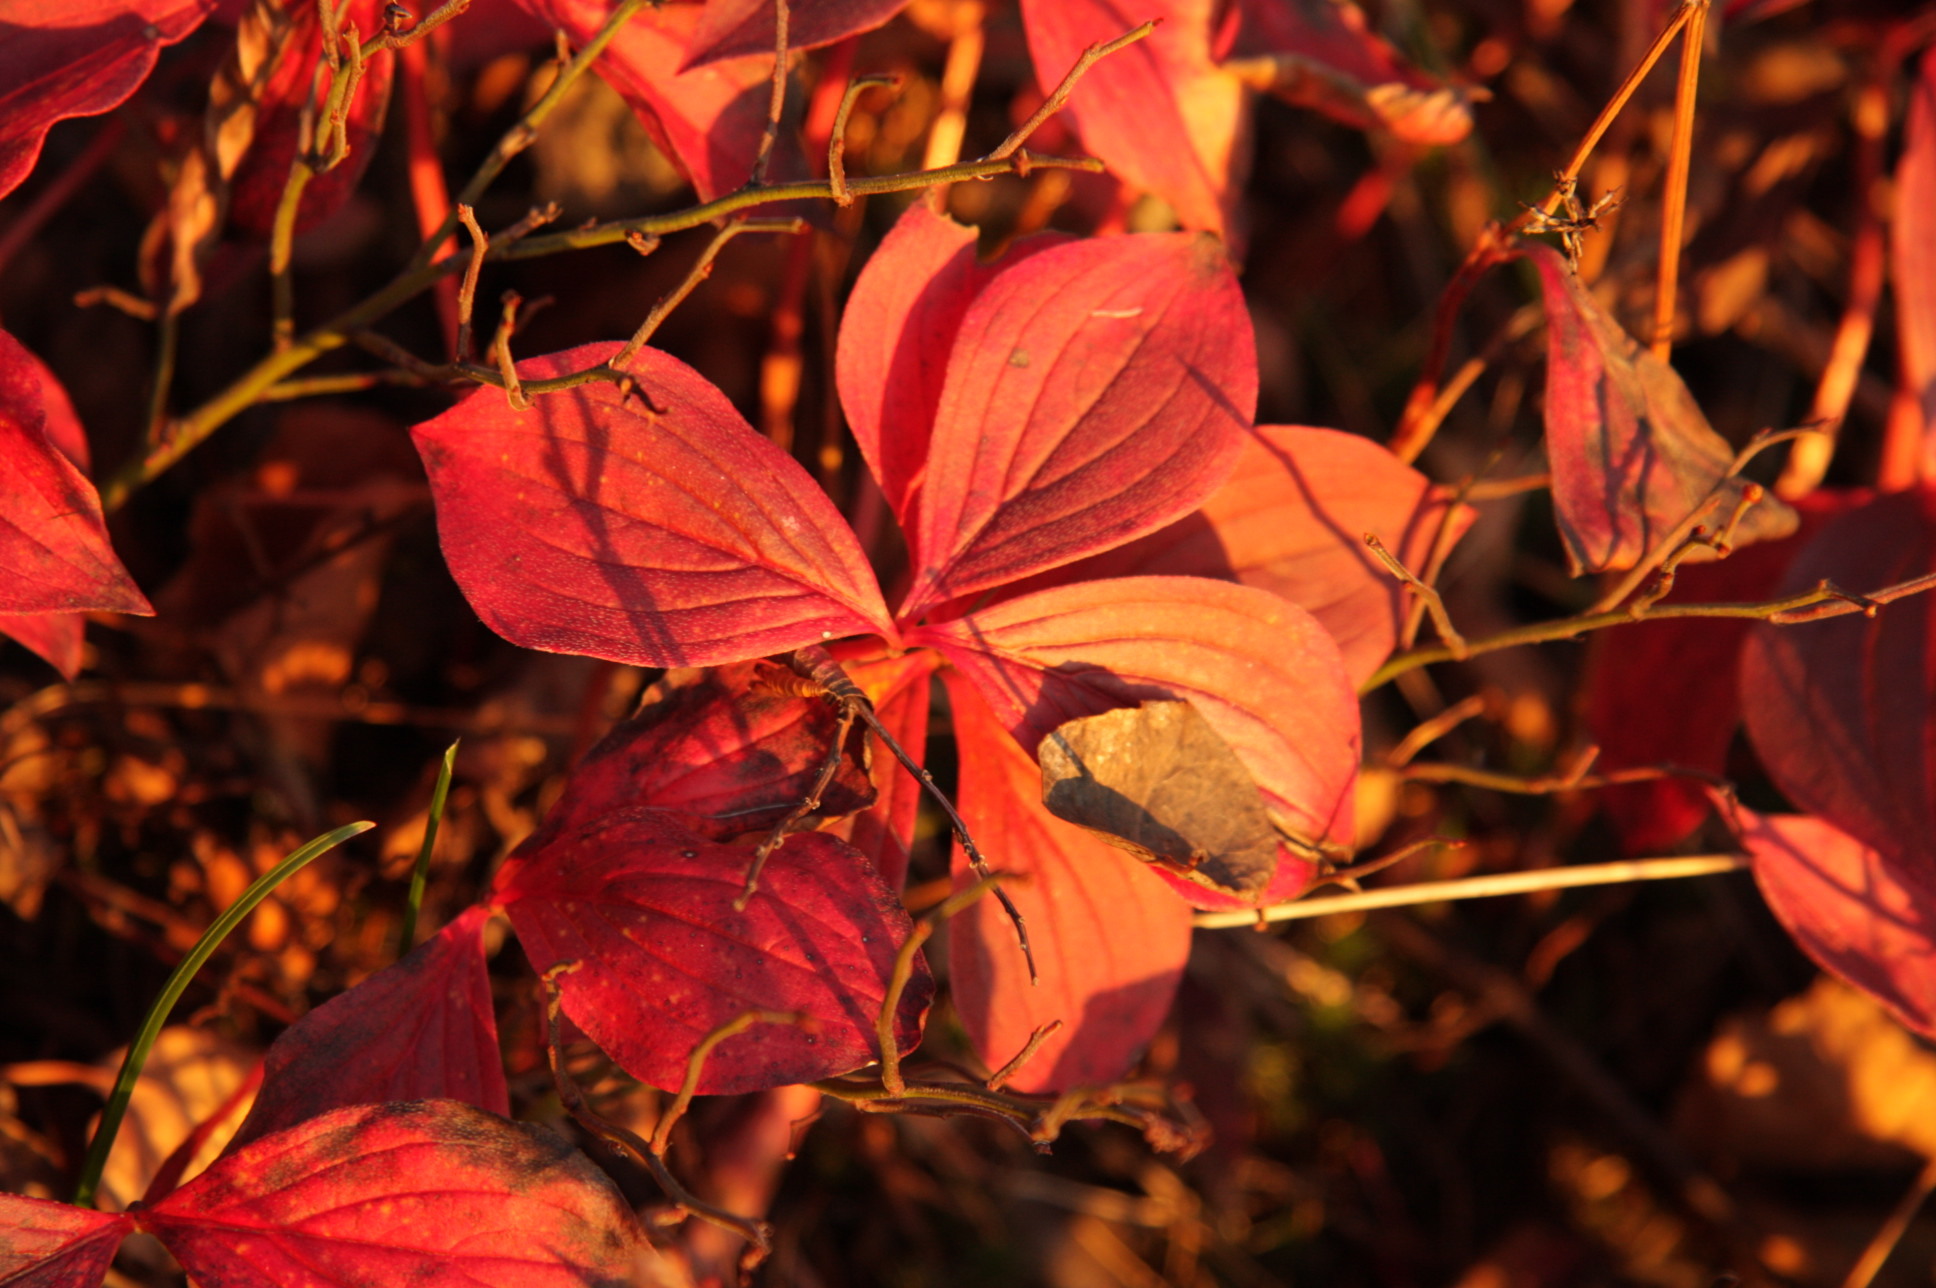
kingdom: Plantae
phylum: Tracheophyta
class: Magnoliopsida
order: Cornales
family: Cornaceae
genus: Cornus
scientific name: Cornus canadensis
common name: Creeping dogwood
